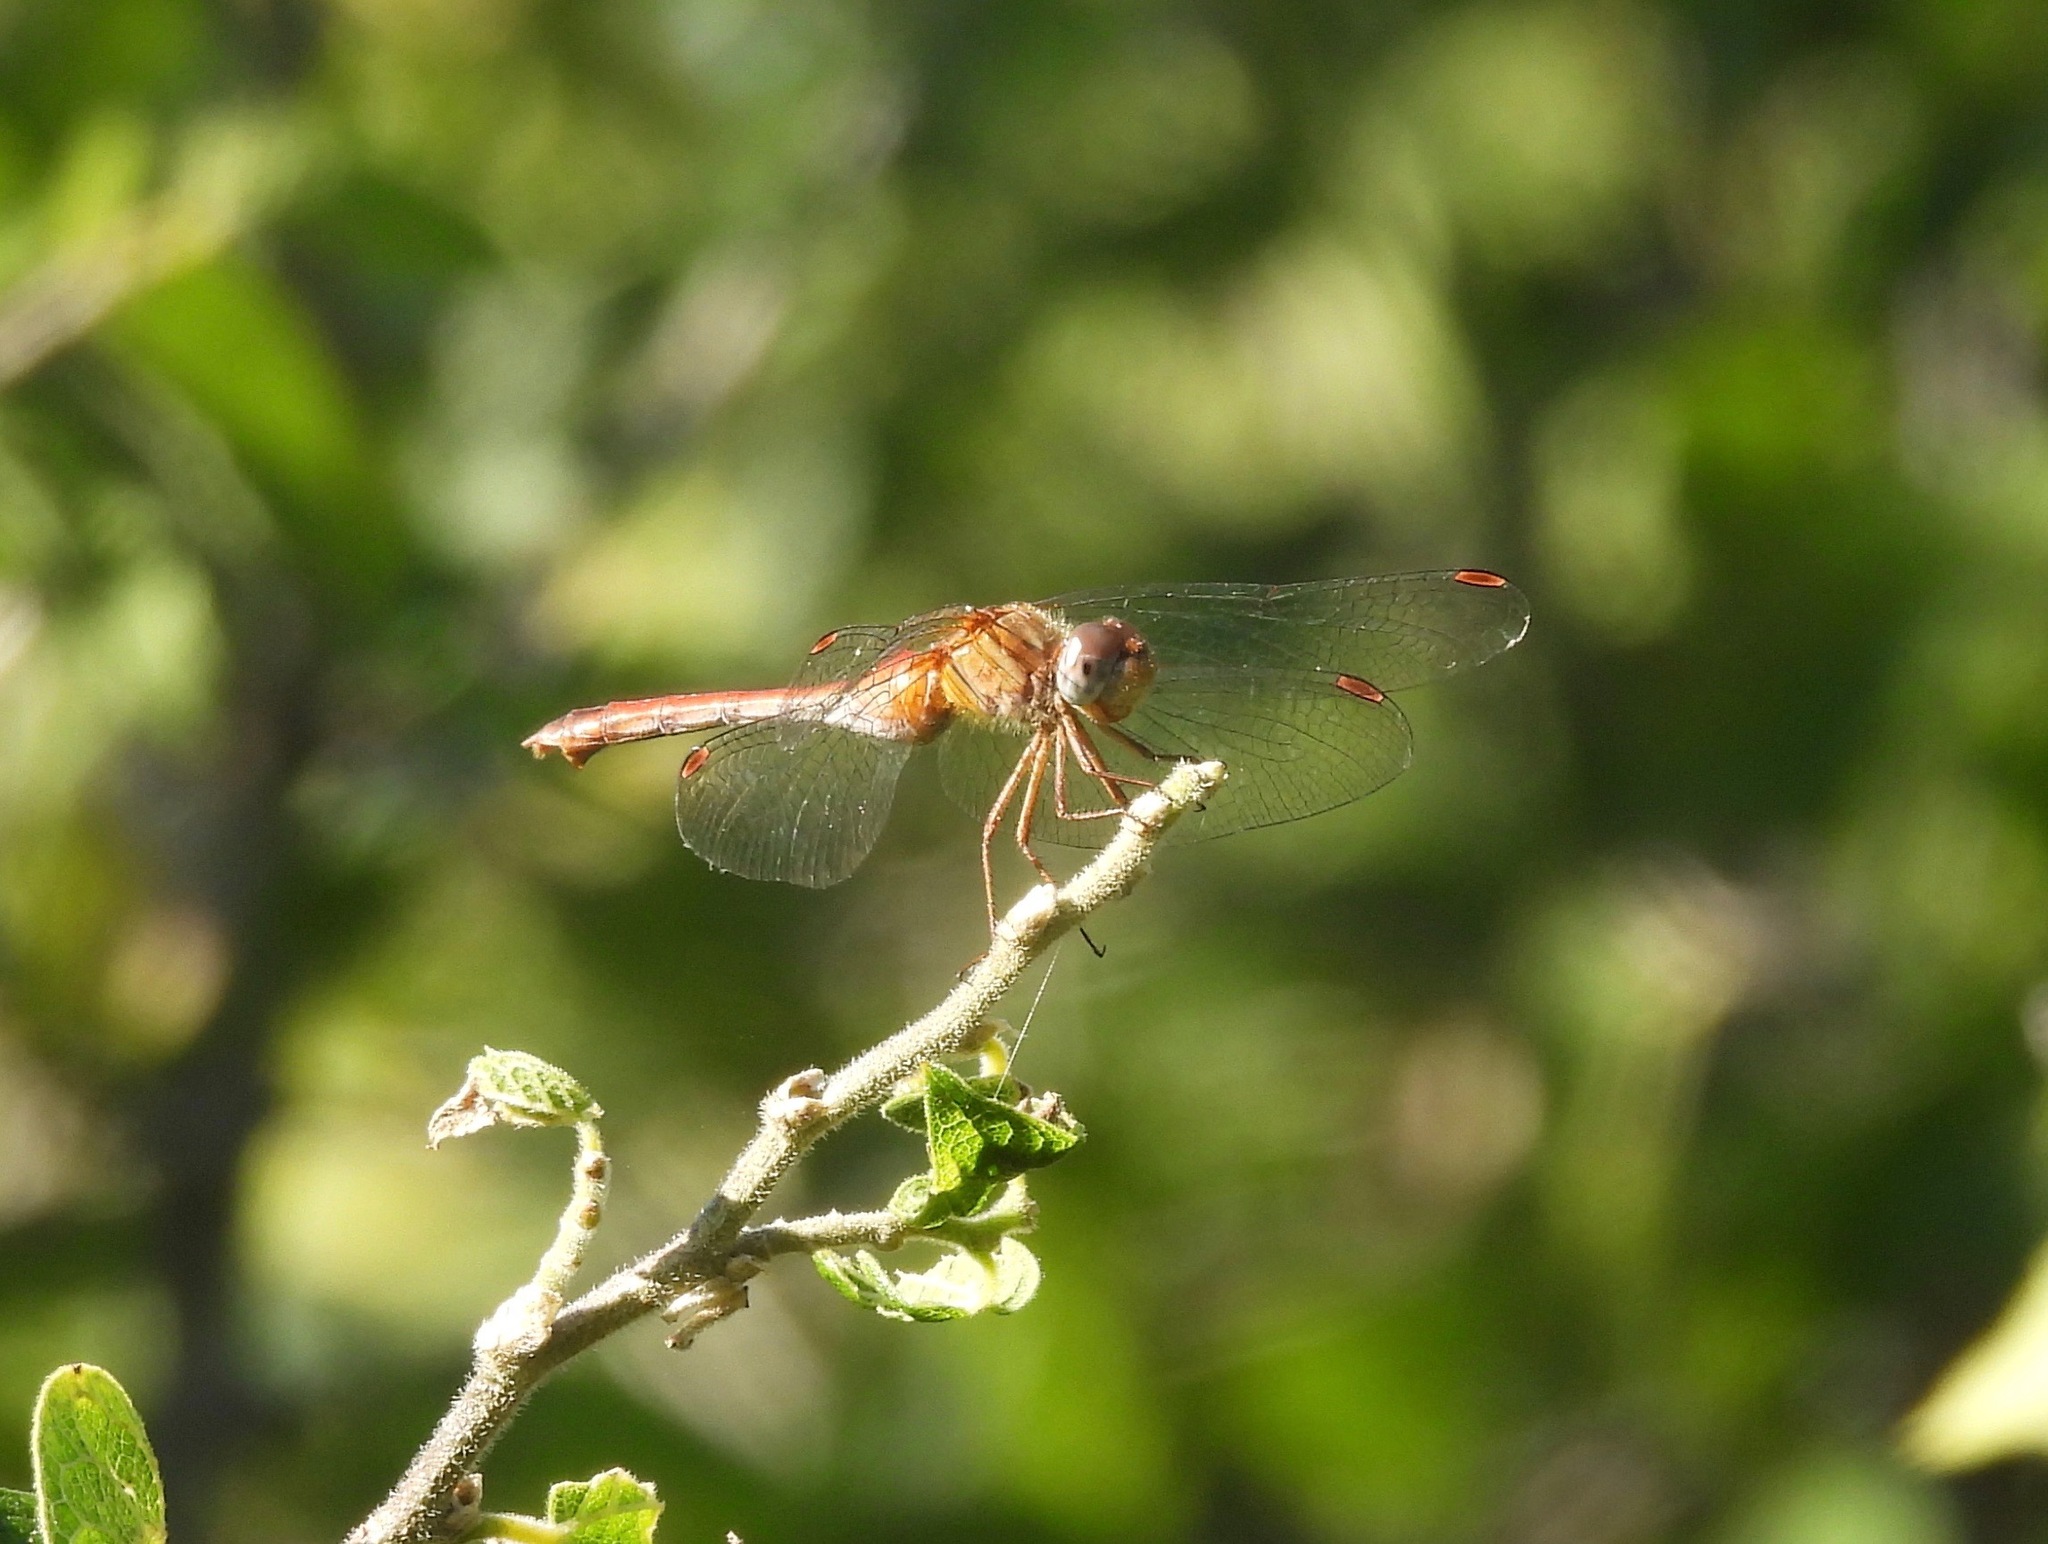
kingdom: Animalia
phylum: Arthropoda
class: Insecta
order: Odonata
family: Libellulidae
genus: Sympetrum
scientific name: Sympetrum vicinum
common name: Autumn meadowhawk
